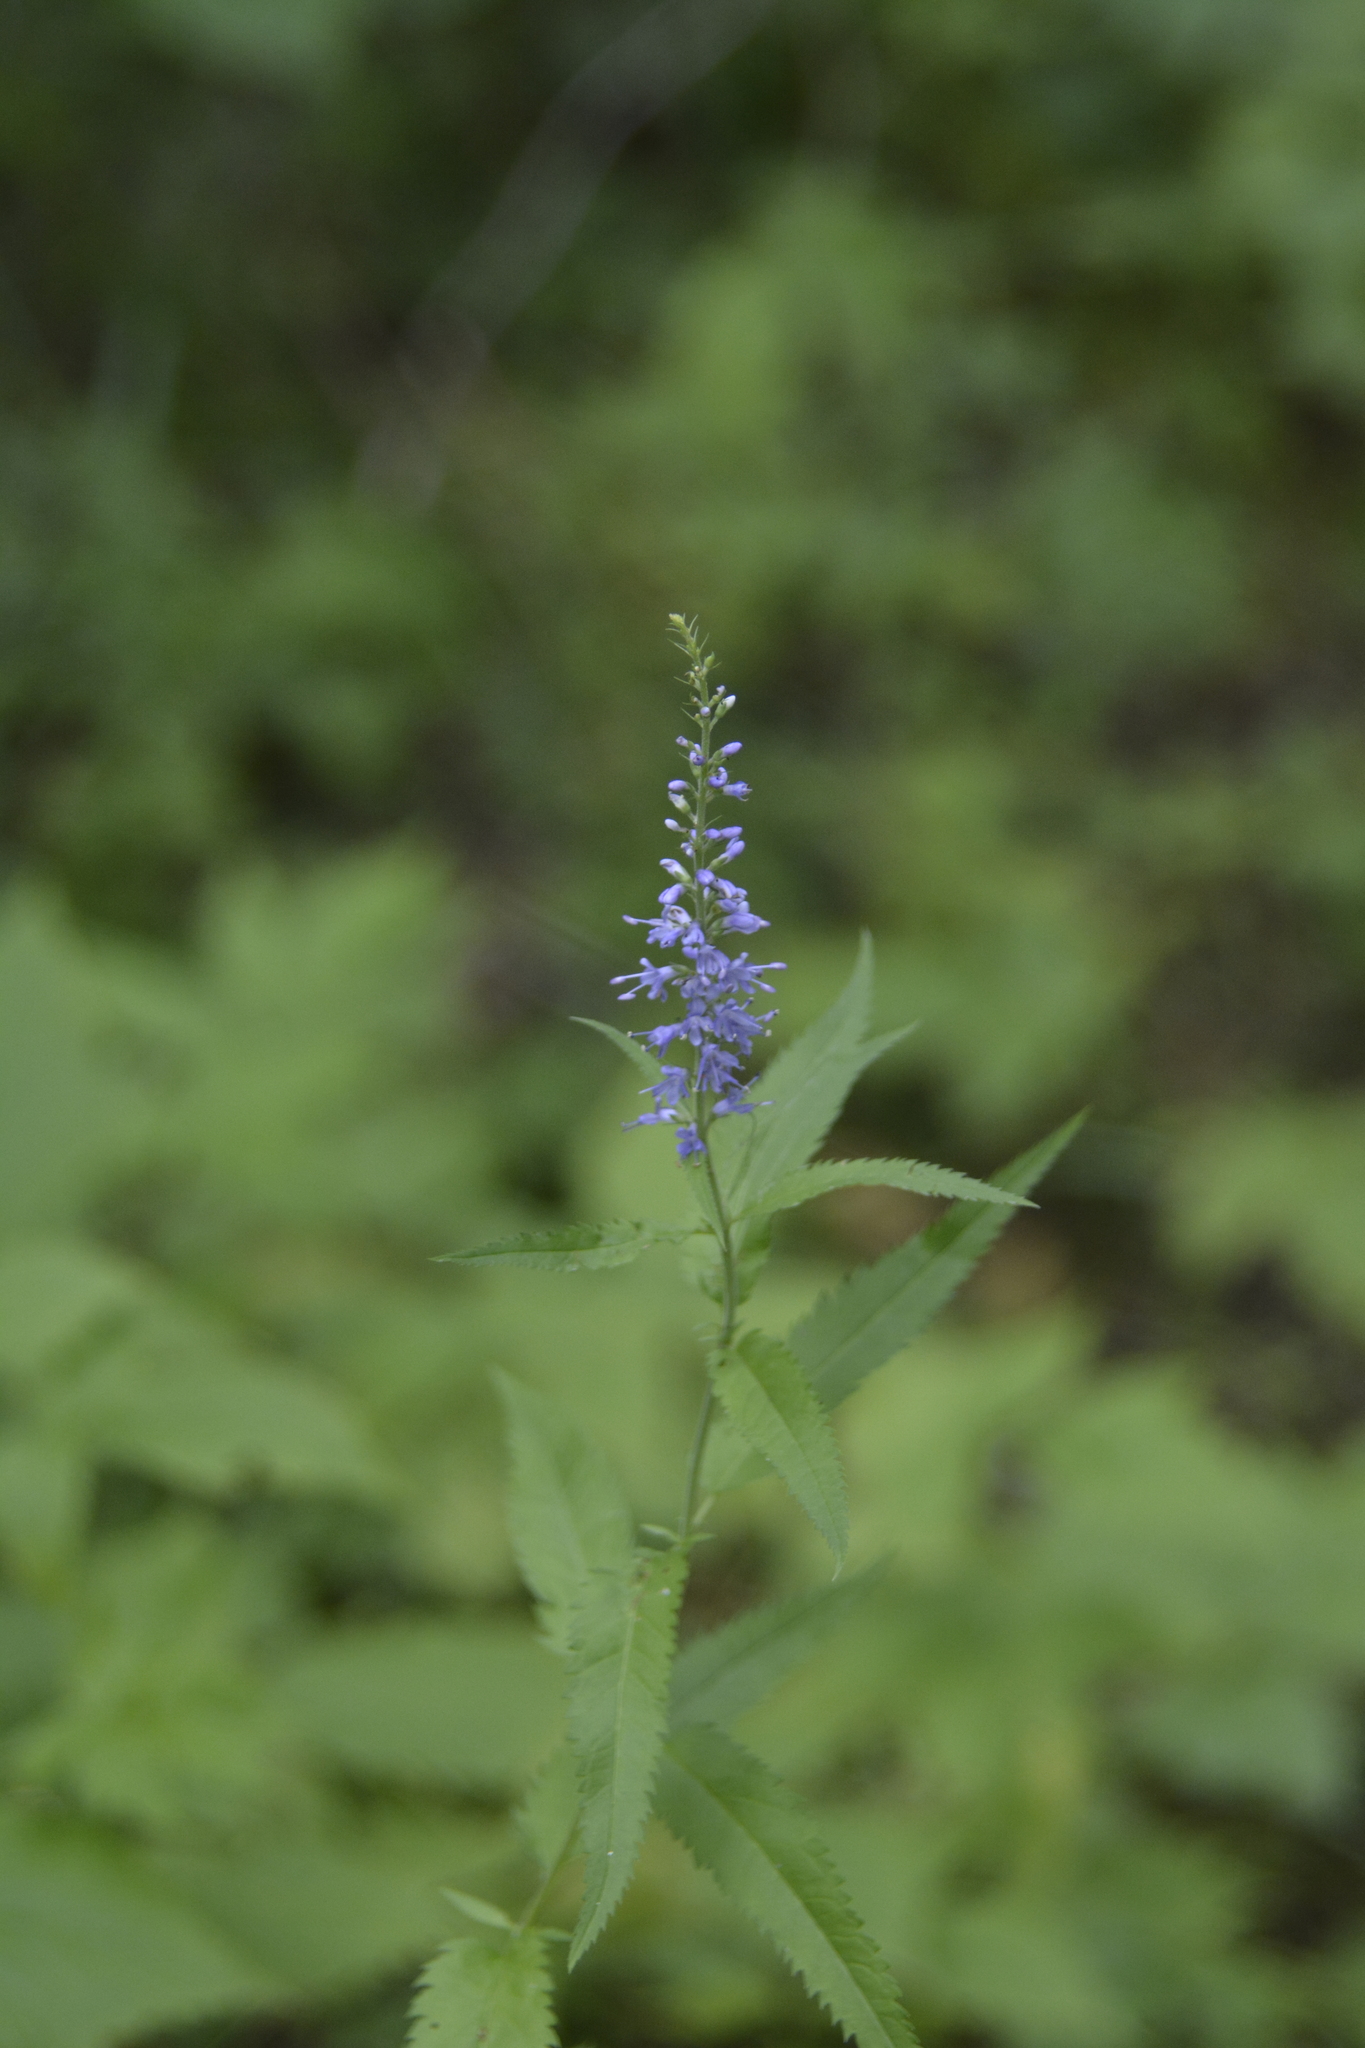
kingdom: Plantae
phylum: Tracheophyta
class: Magnoliopsida
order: Lamiales
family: Plantaginaceae
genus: Veronica
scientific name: Veronica longifolia
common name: Garden speedwell
